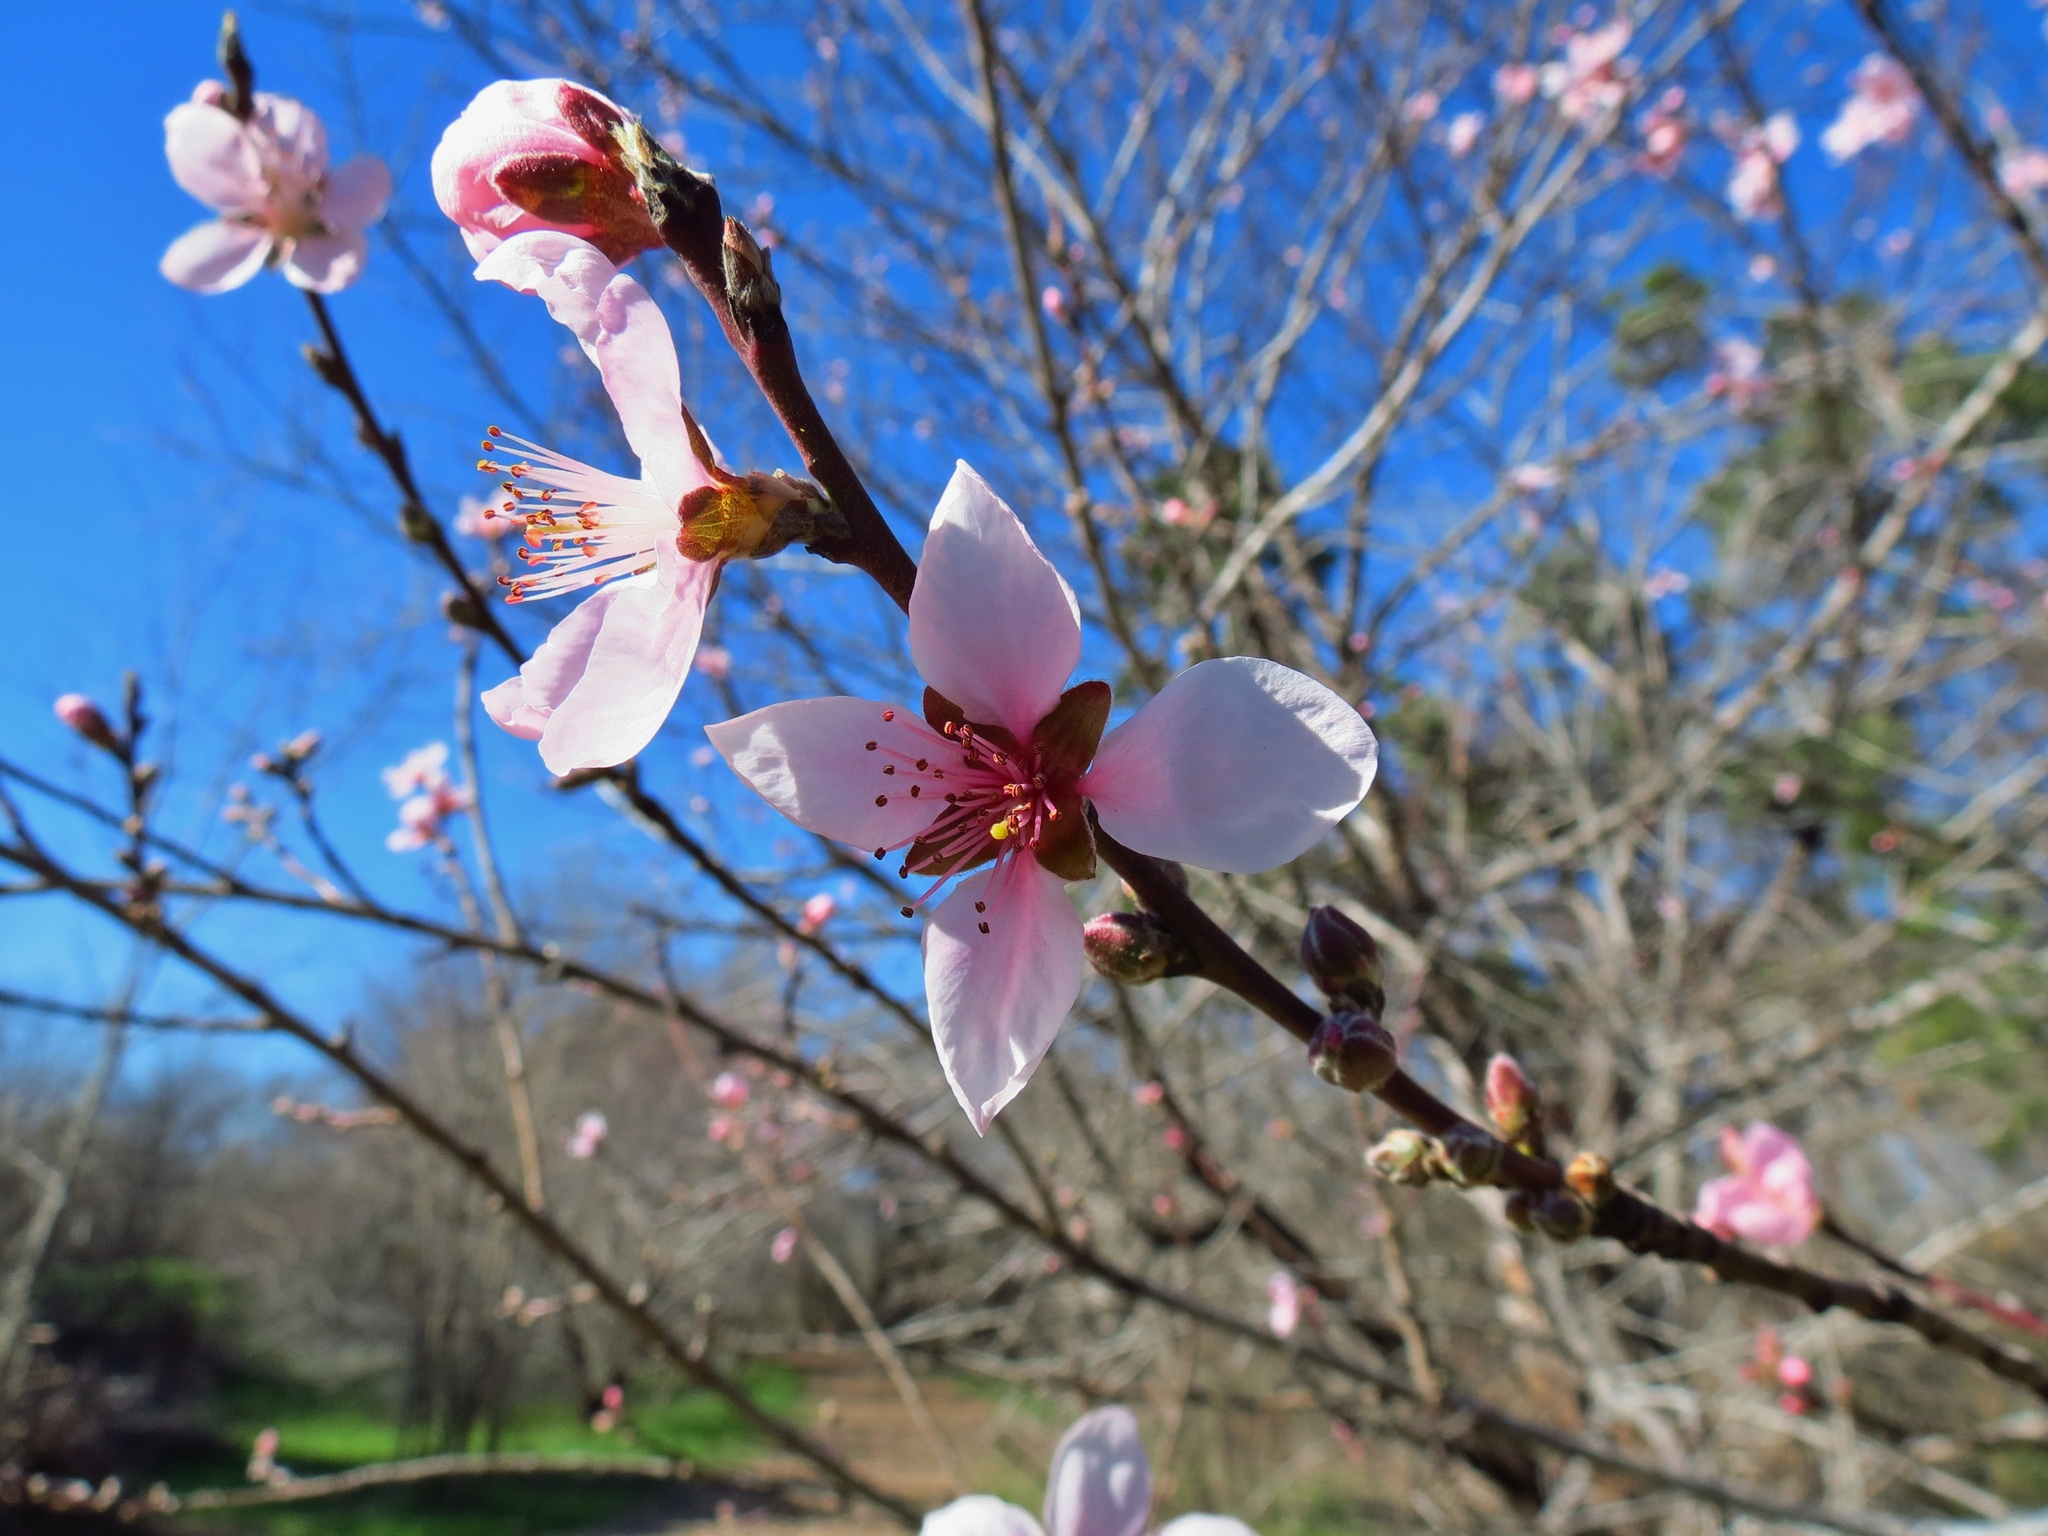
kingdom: Plantae
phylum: Tracheophyta
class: Magnoliopsida
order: Rosales
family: Rosaceae
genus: Prunus
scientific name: Prunus persica
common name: Peach
